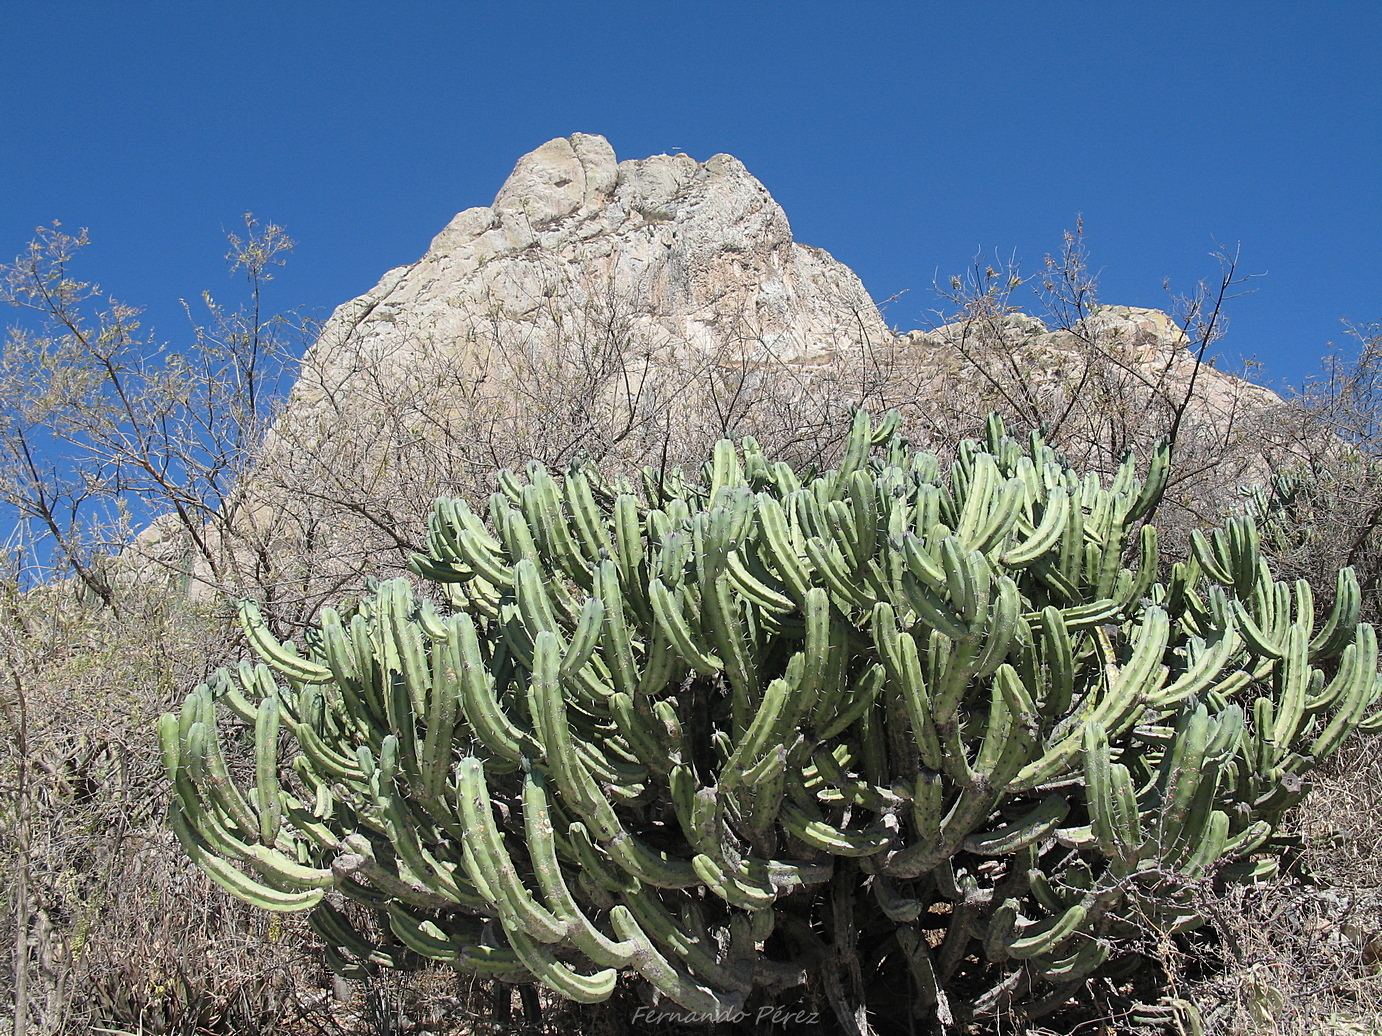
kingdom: Plantae
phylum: Tracheophyta
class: Magnoliopsida
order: Caryophyllales
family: Cactaceae
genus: Myrtillocactus
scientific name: Myrtillocactus geometrizans
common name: Bilberry cactus
